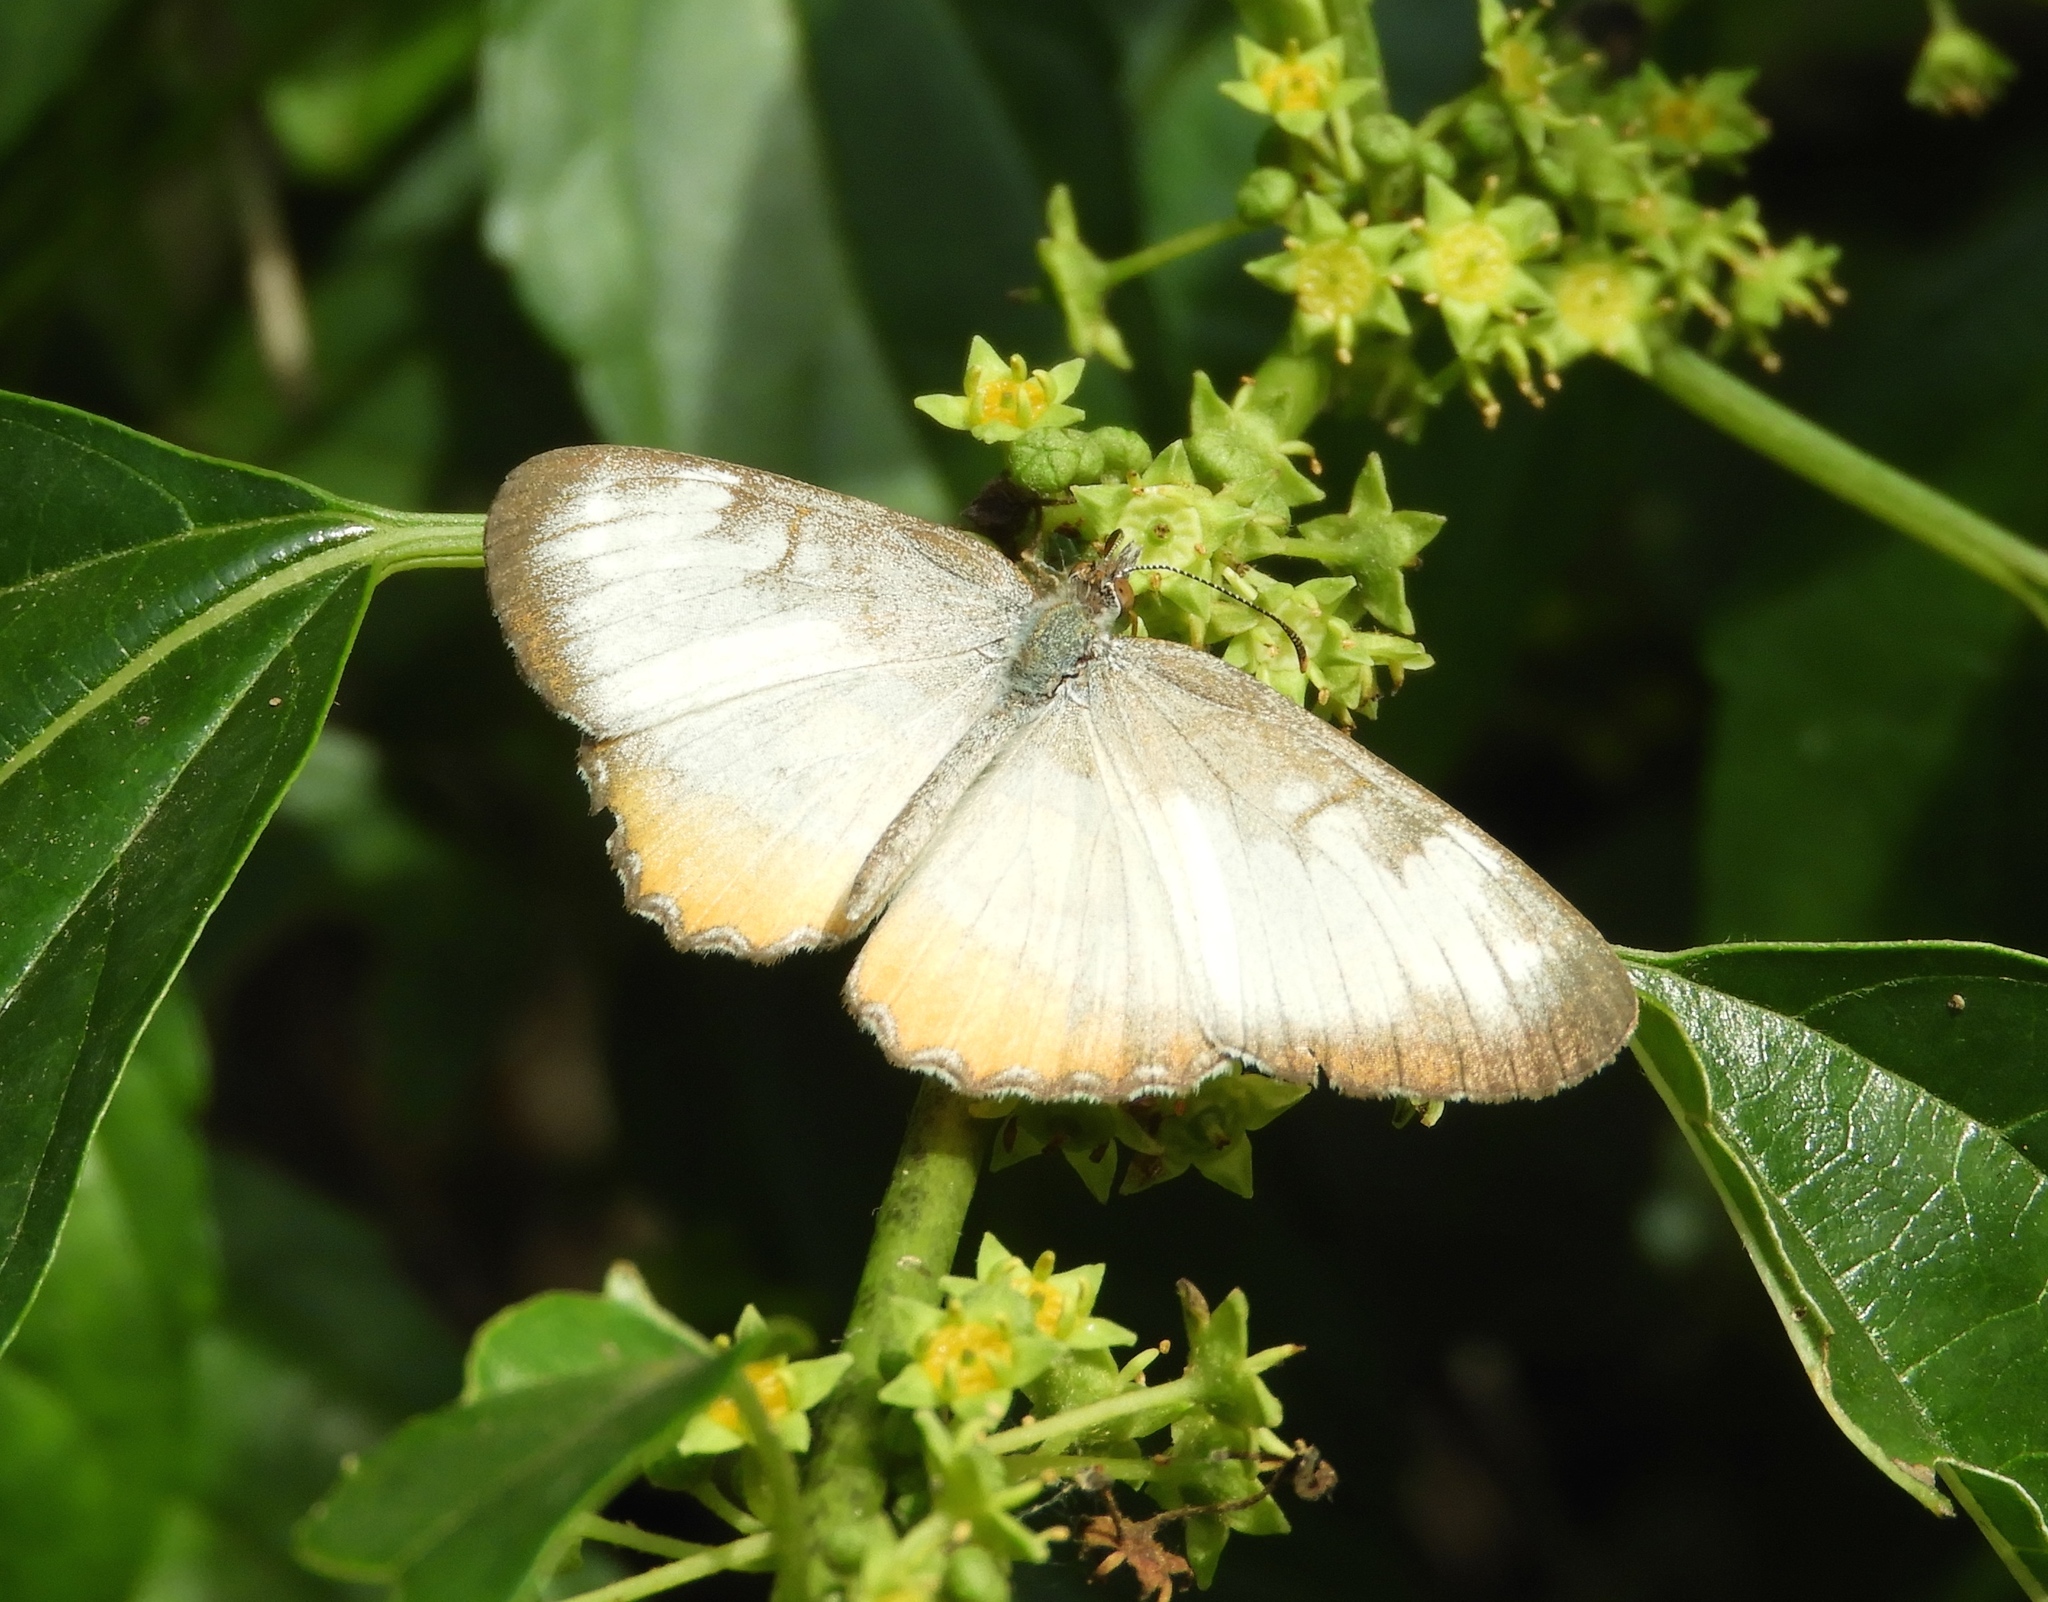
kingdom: Animalia
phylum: Arthropoda
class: Insecta
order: Lepidoptera
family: Nymphalidae
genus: Mestra
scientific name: Mestra amymone
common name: Common mestra
